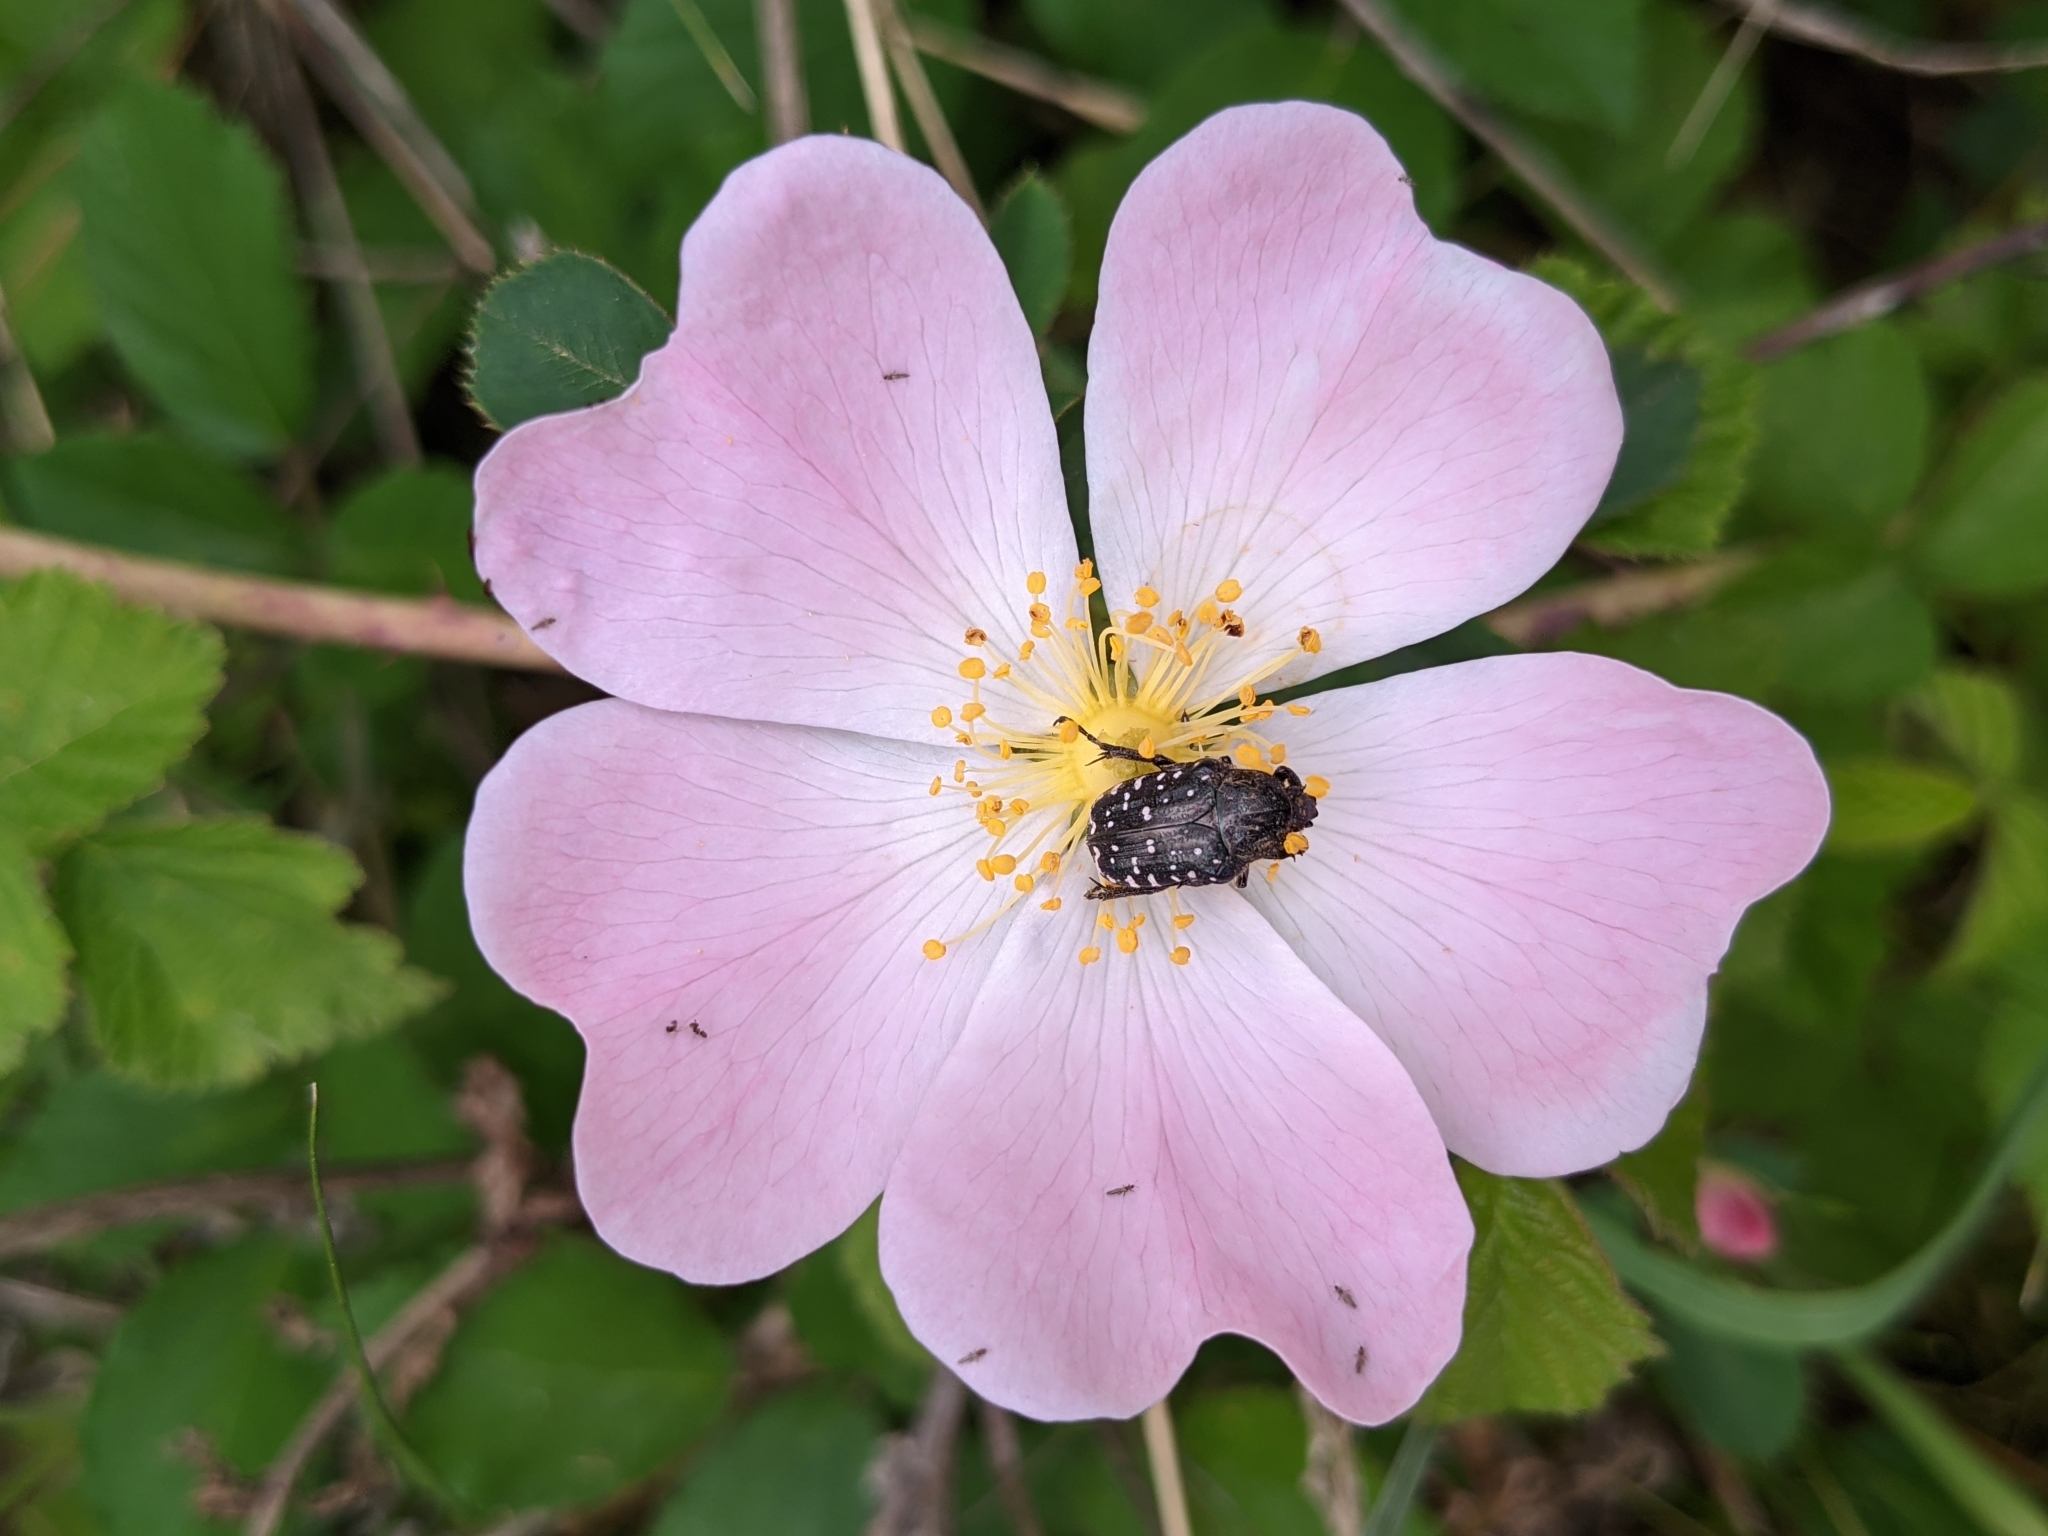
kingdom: Animalia
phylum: Arthropoda
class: Insecta
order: Coleoptera
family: Scarabaeidae
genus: Oxythyrea
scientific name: Oxythyrea funesta
